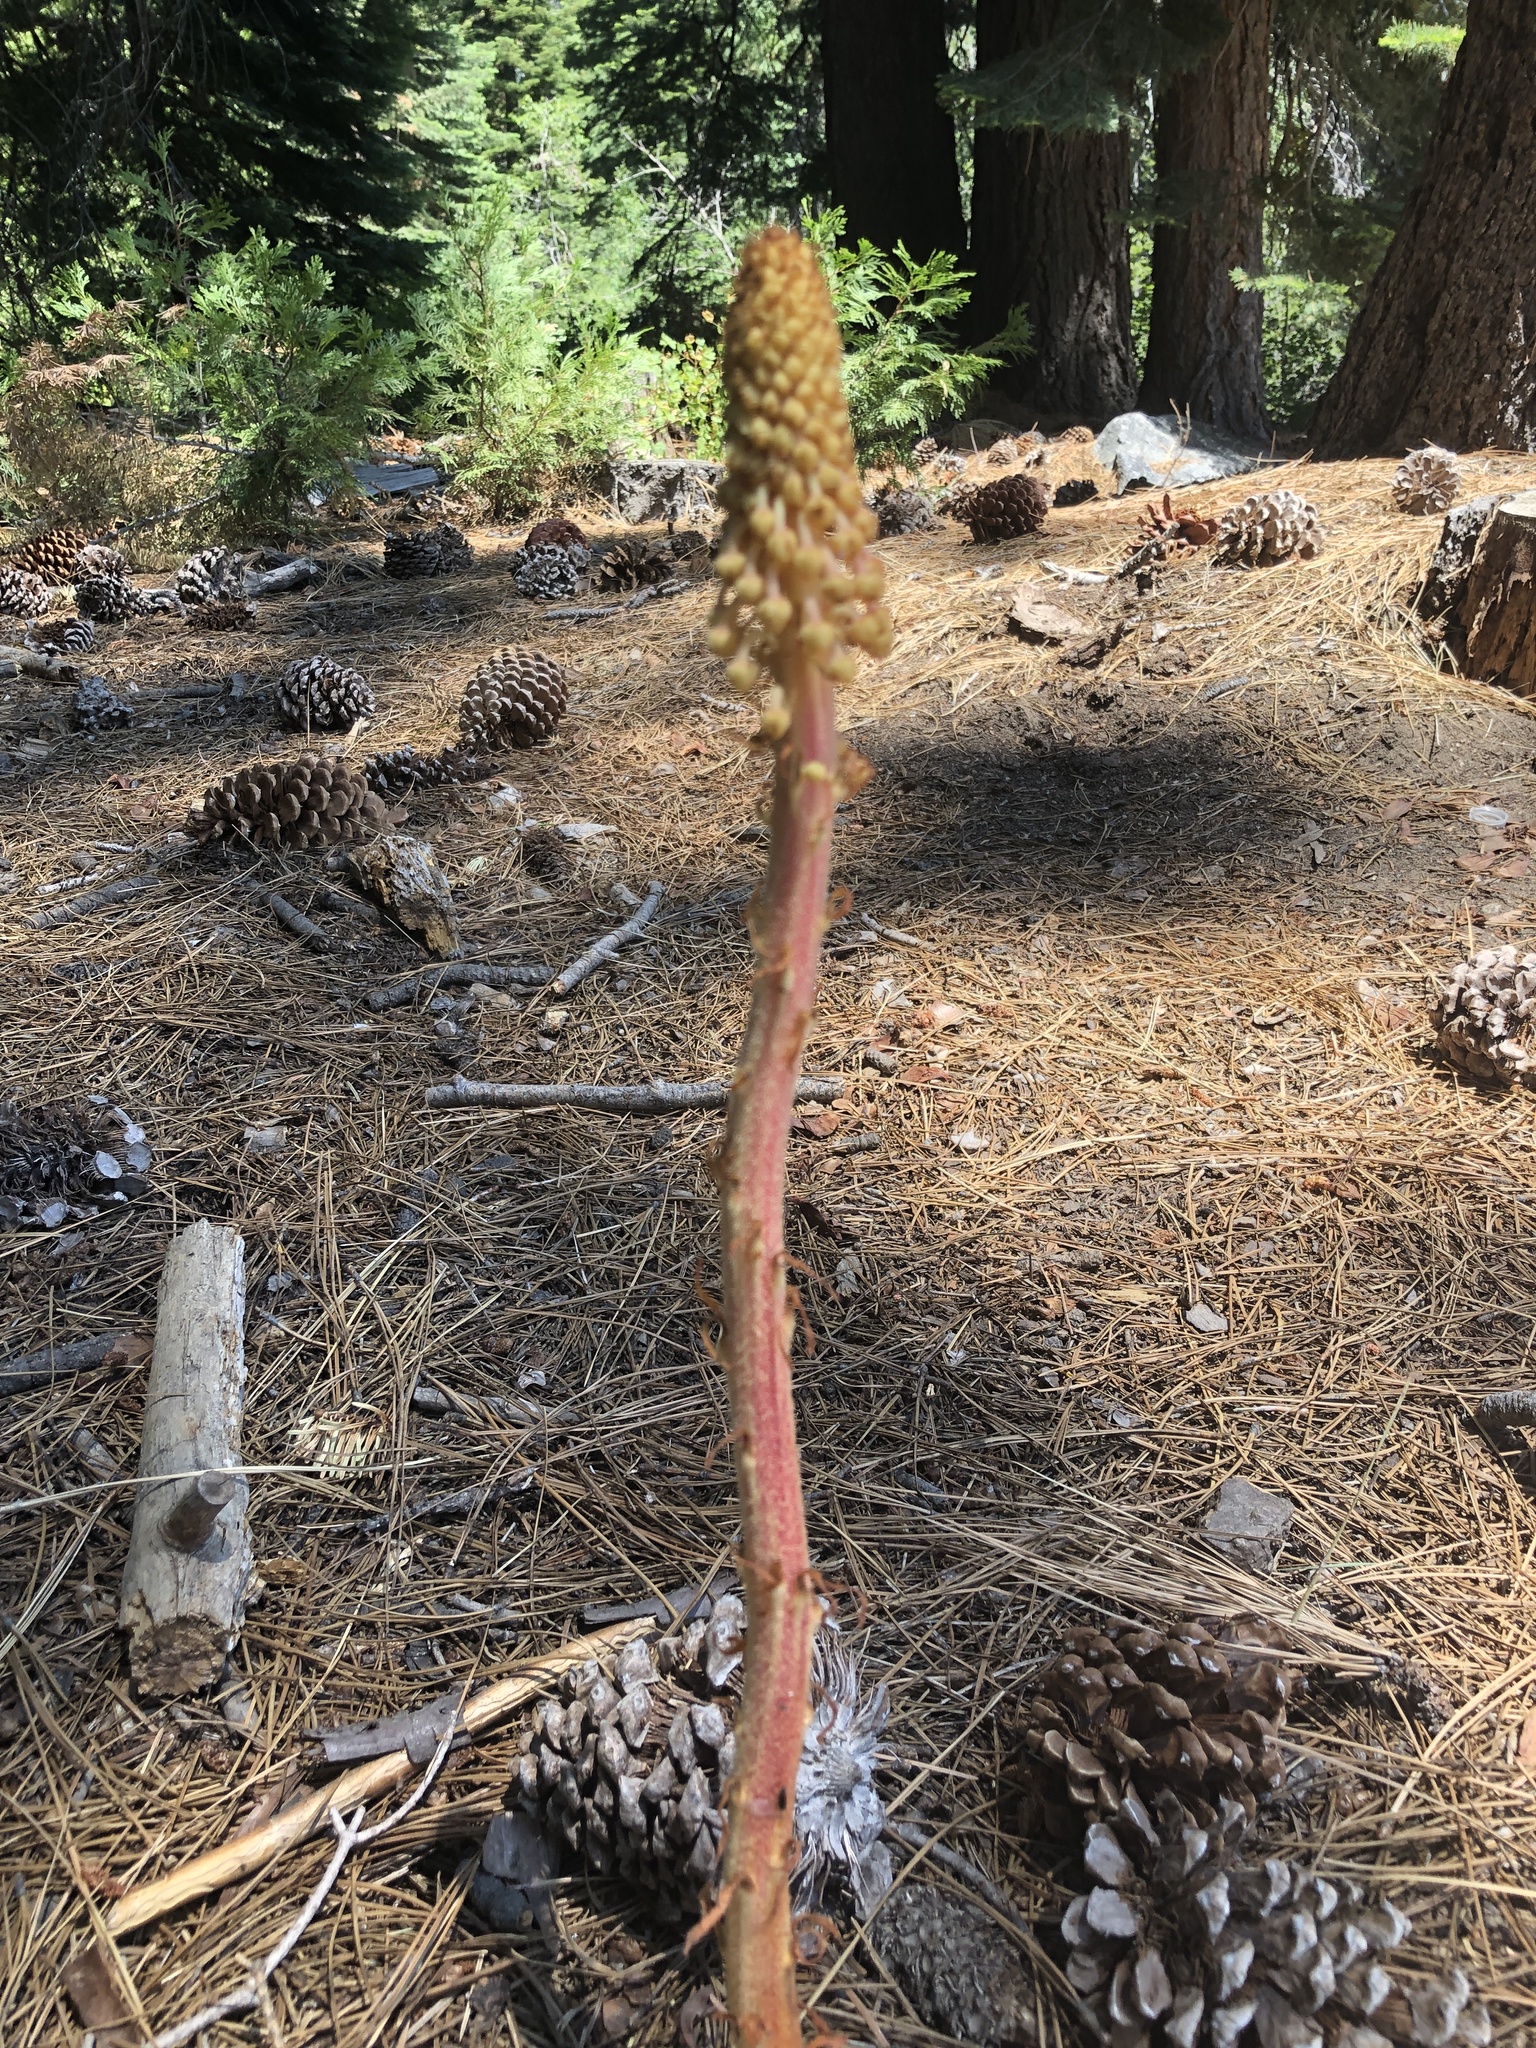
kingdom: Plantae
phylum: Tracheophyta
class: Magnoliopsida
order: Ericales
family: Ericaceae
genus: Pterospora
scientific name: Pterospora andromedea
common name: Giant bird's-nest
